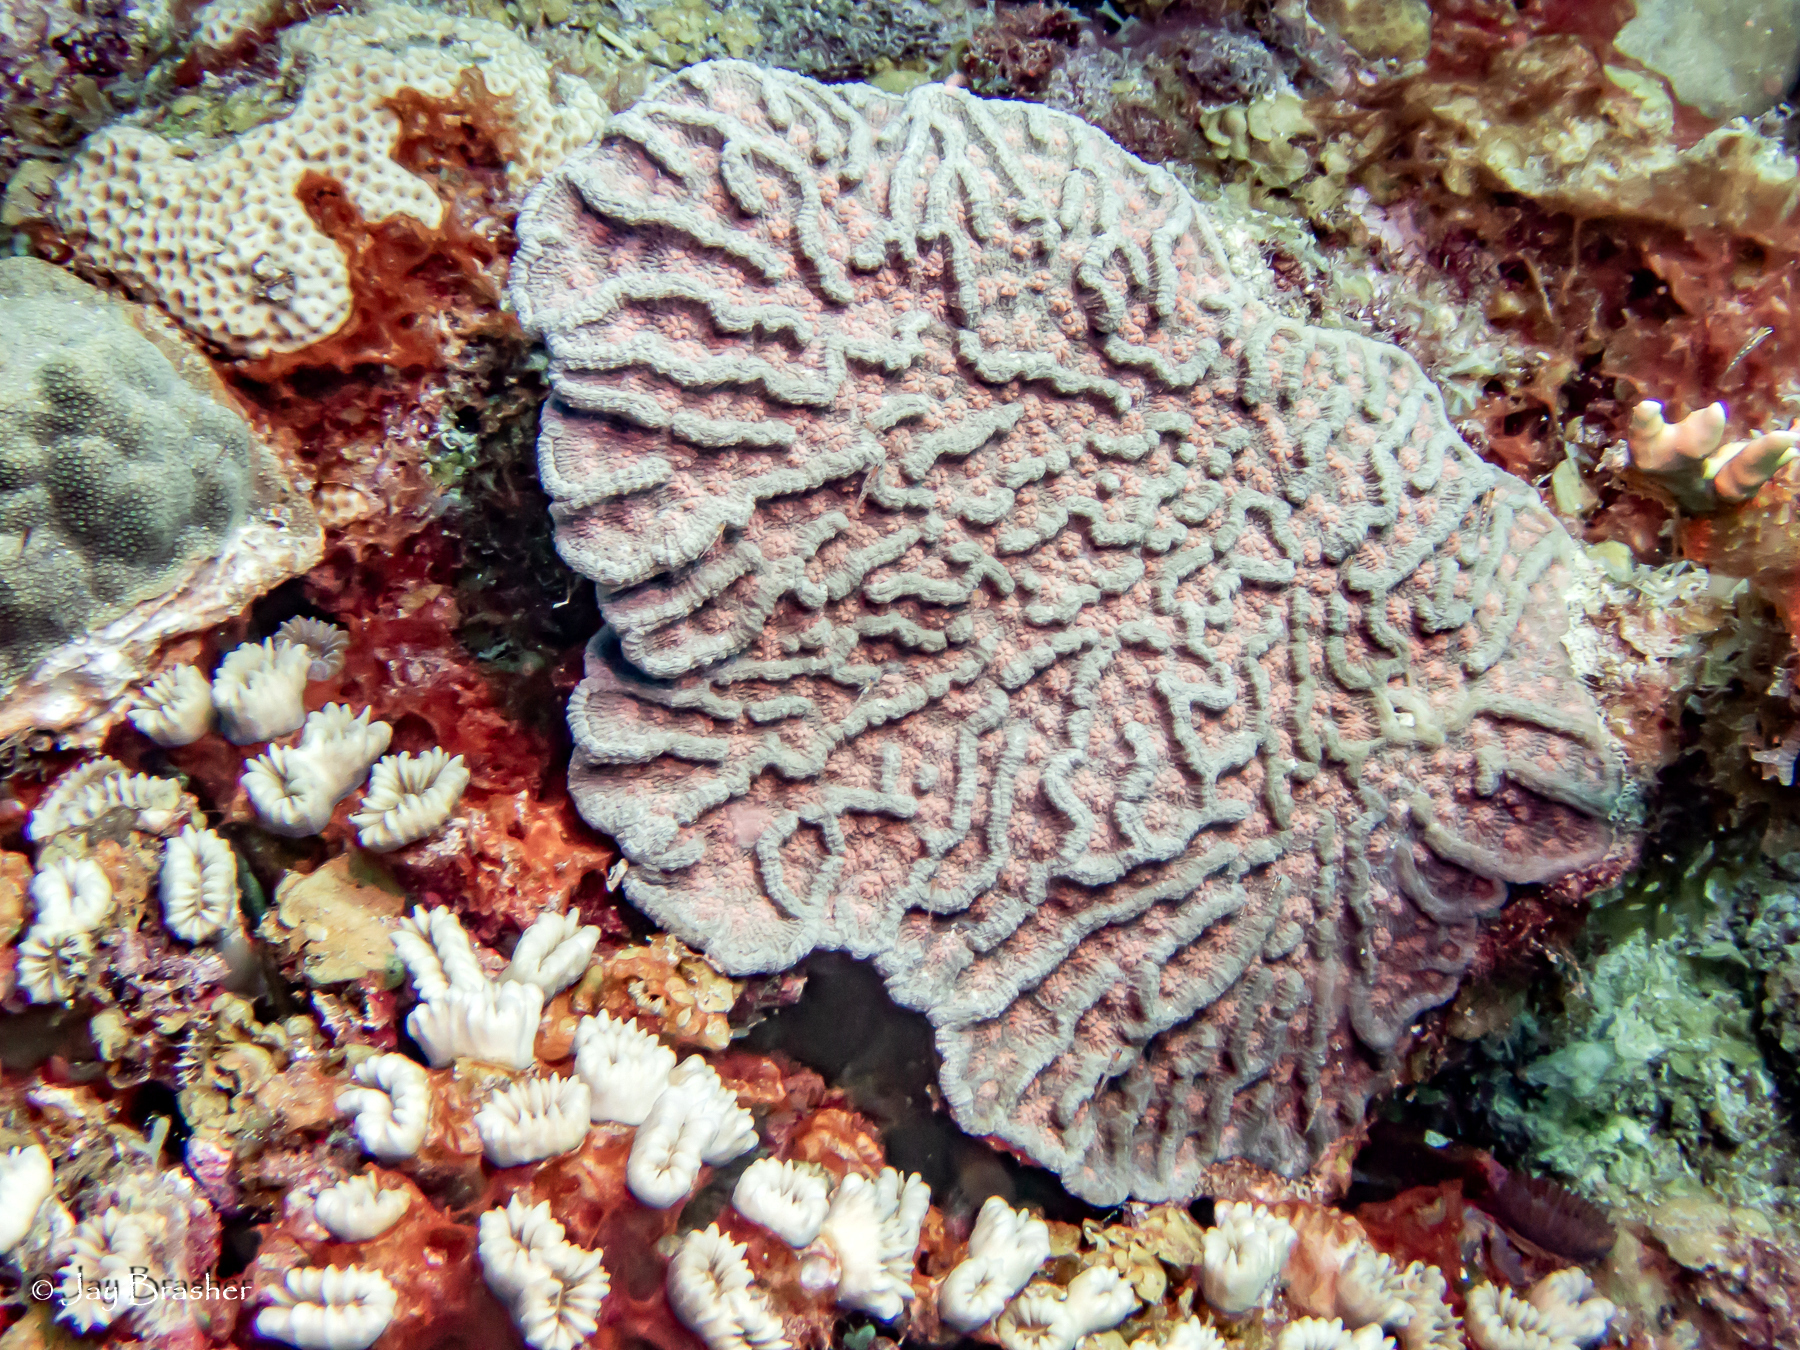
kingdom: Animalia
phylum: Cnidaria
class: Anthozoa
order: Scleractinia
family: Meandrinidae
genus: Eusmilia
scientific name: Eusmilia fastigiata
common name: Smooth flower coral
